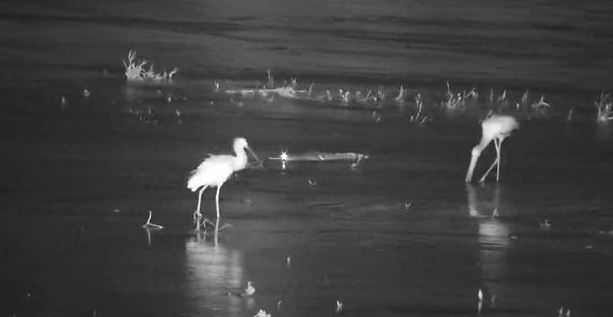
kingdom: Animalia
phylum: Chordata
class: Aves
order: Pelecaniformes
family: Threskiornithidae
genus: Platalea
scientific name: Platalea alba
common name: African spoonbill
